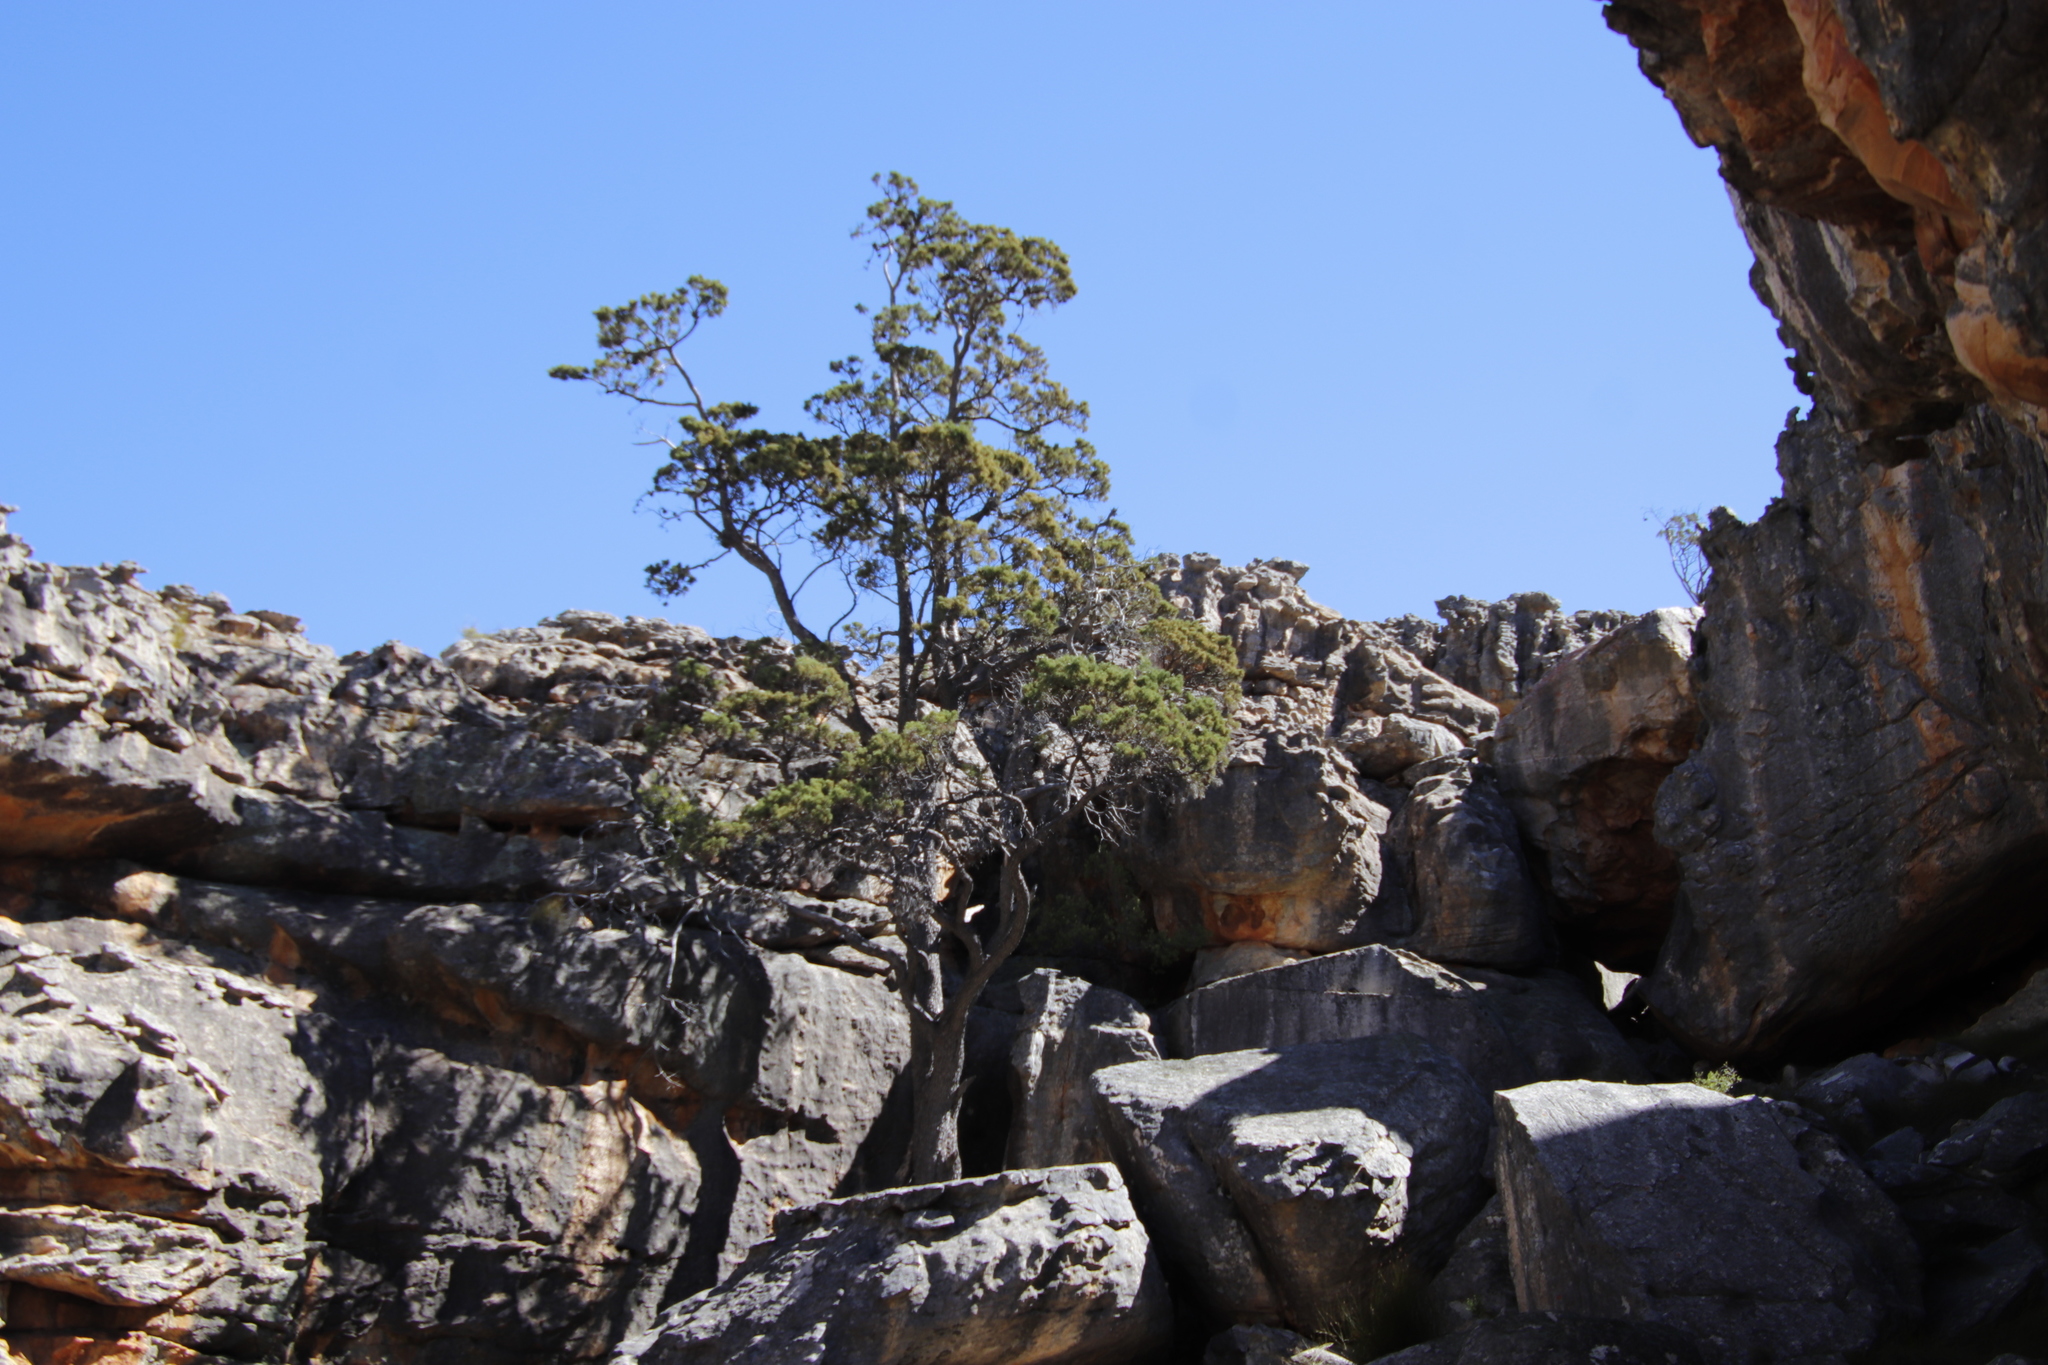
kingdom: Plantae
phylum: Tracheophyta
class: Pinopsida
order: Pinales
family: Cupressaceae
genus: Widdringtonia
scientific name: Widdringtonia nodiflora
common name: Cape cypress
